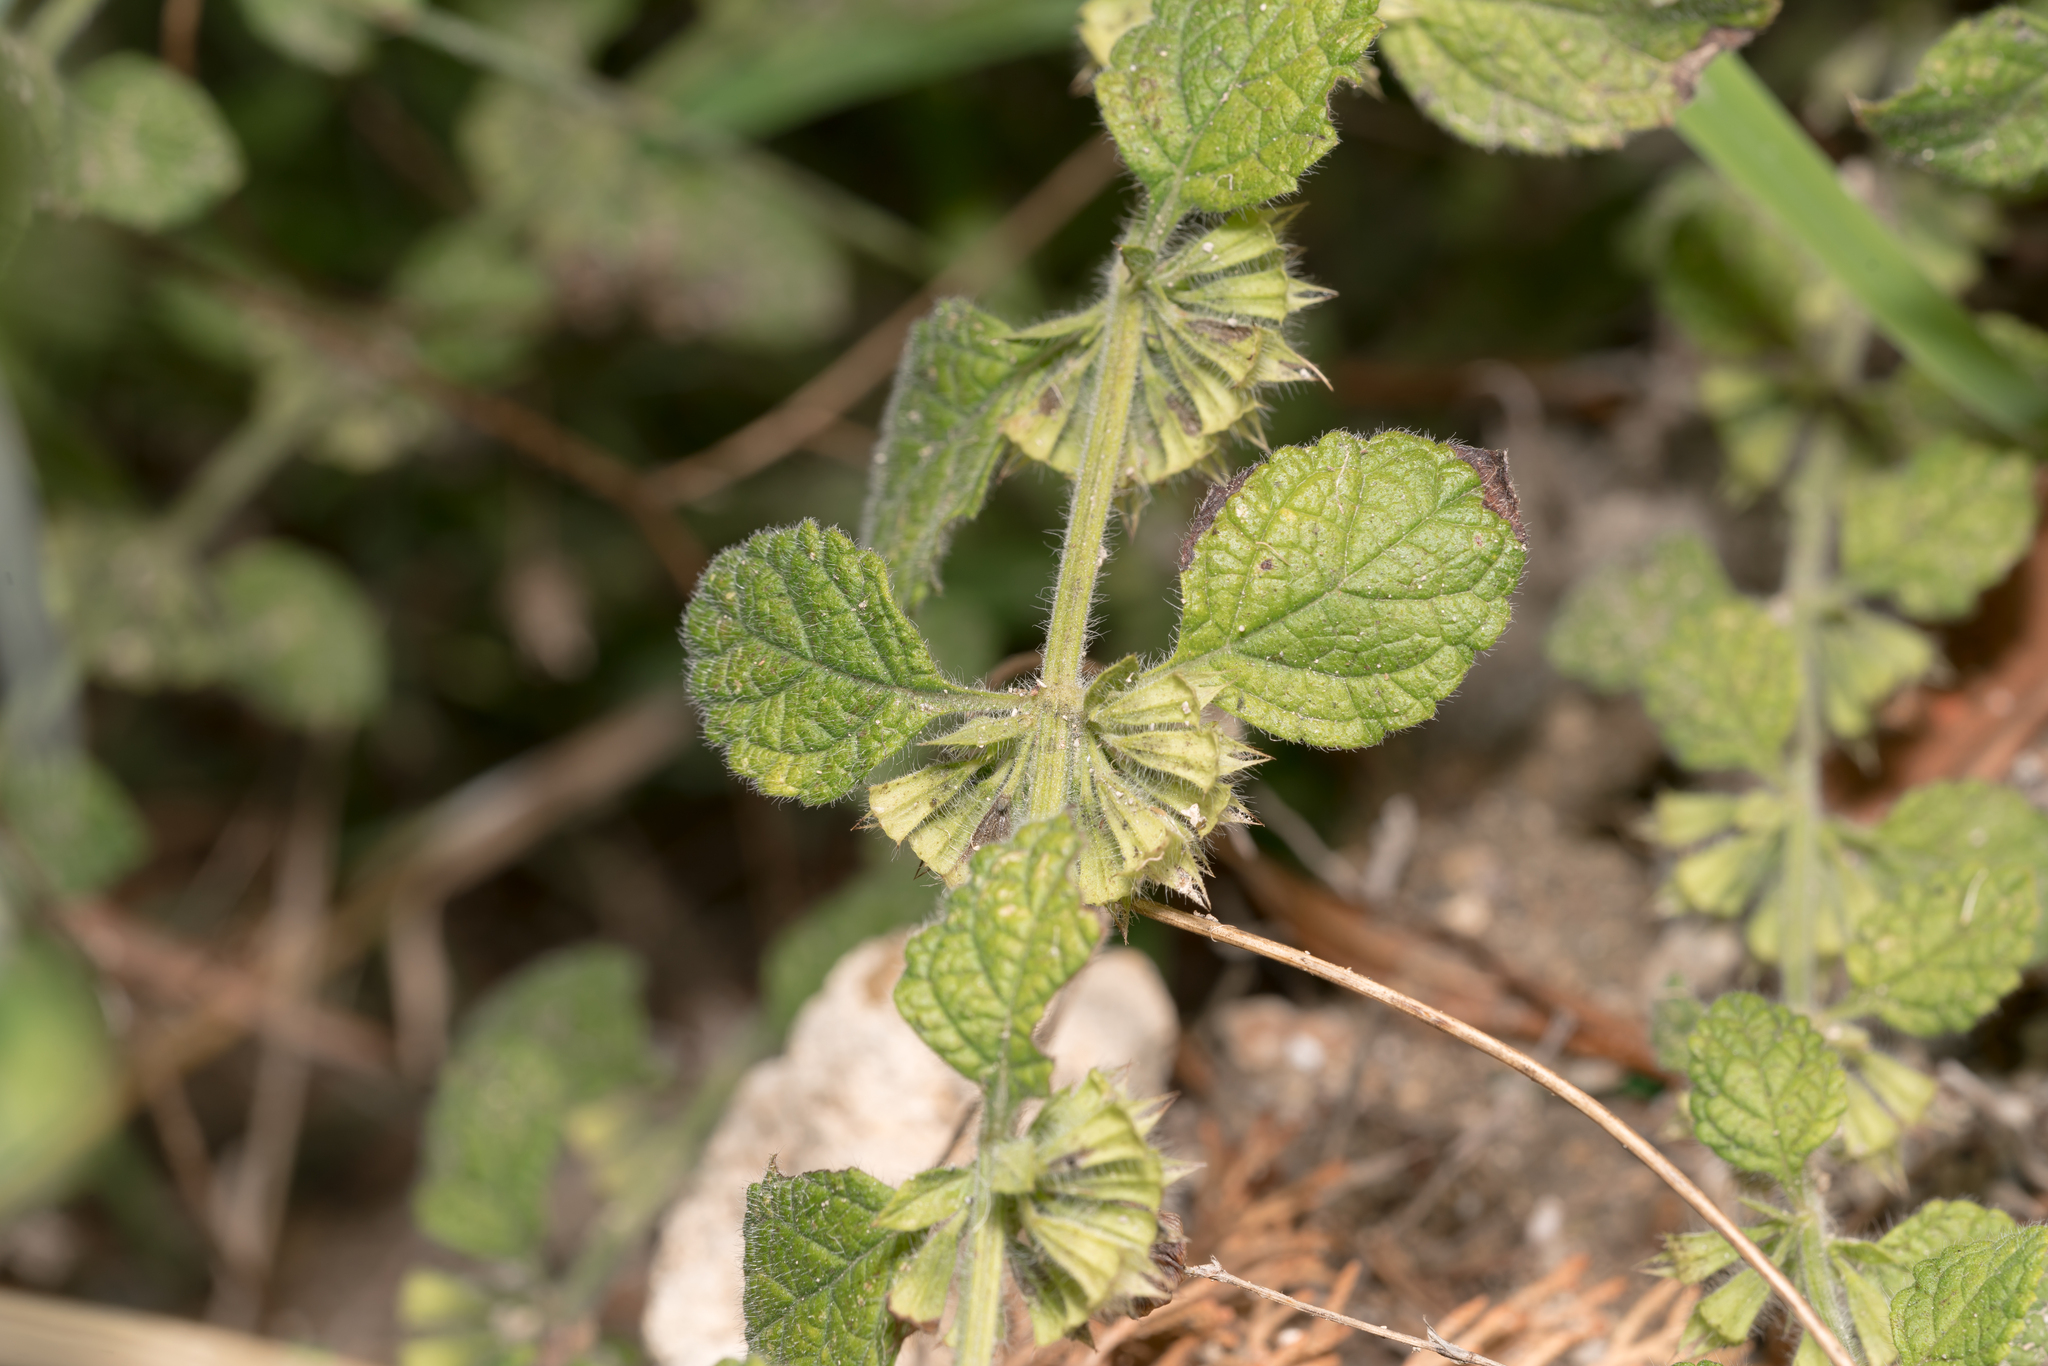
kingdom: Plantae
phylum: Tracheophyta
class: Magnoliopsida
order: Lamiales
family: Lamiaceae
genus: Melissa
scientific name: Melissa officinalis
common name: Balm
